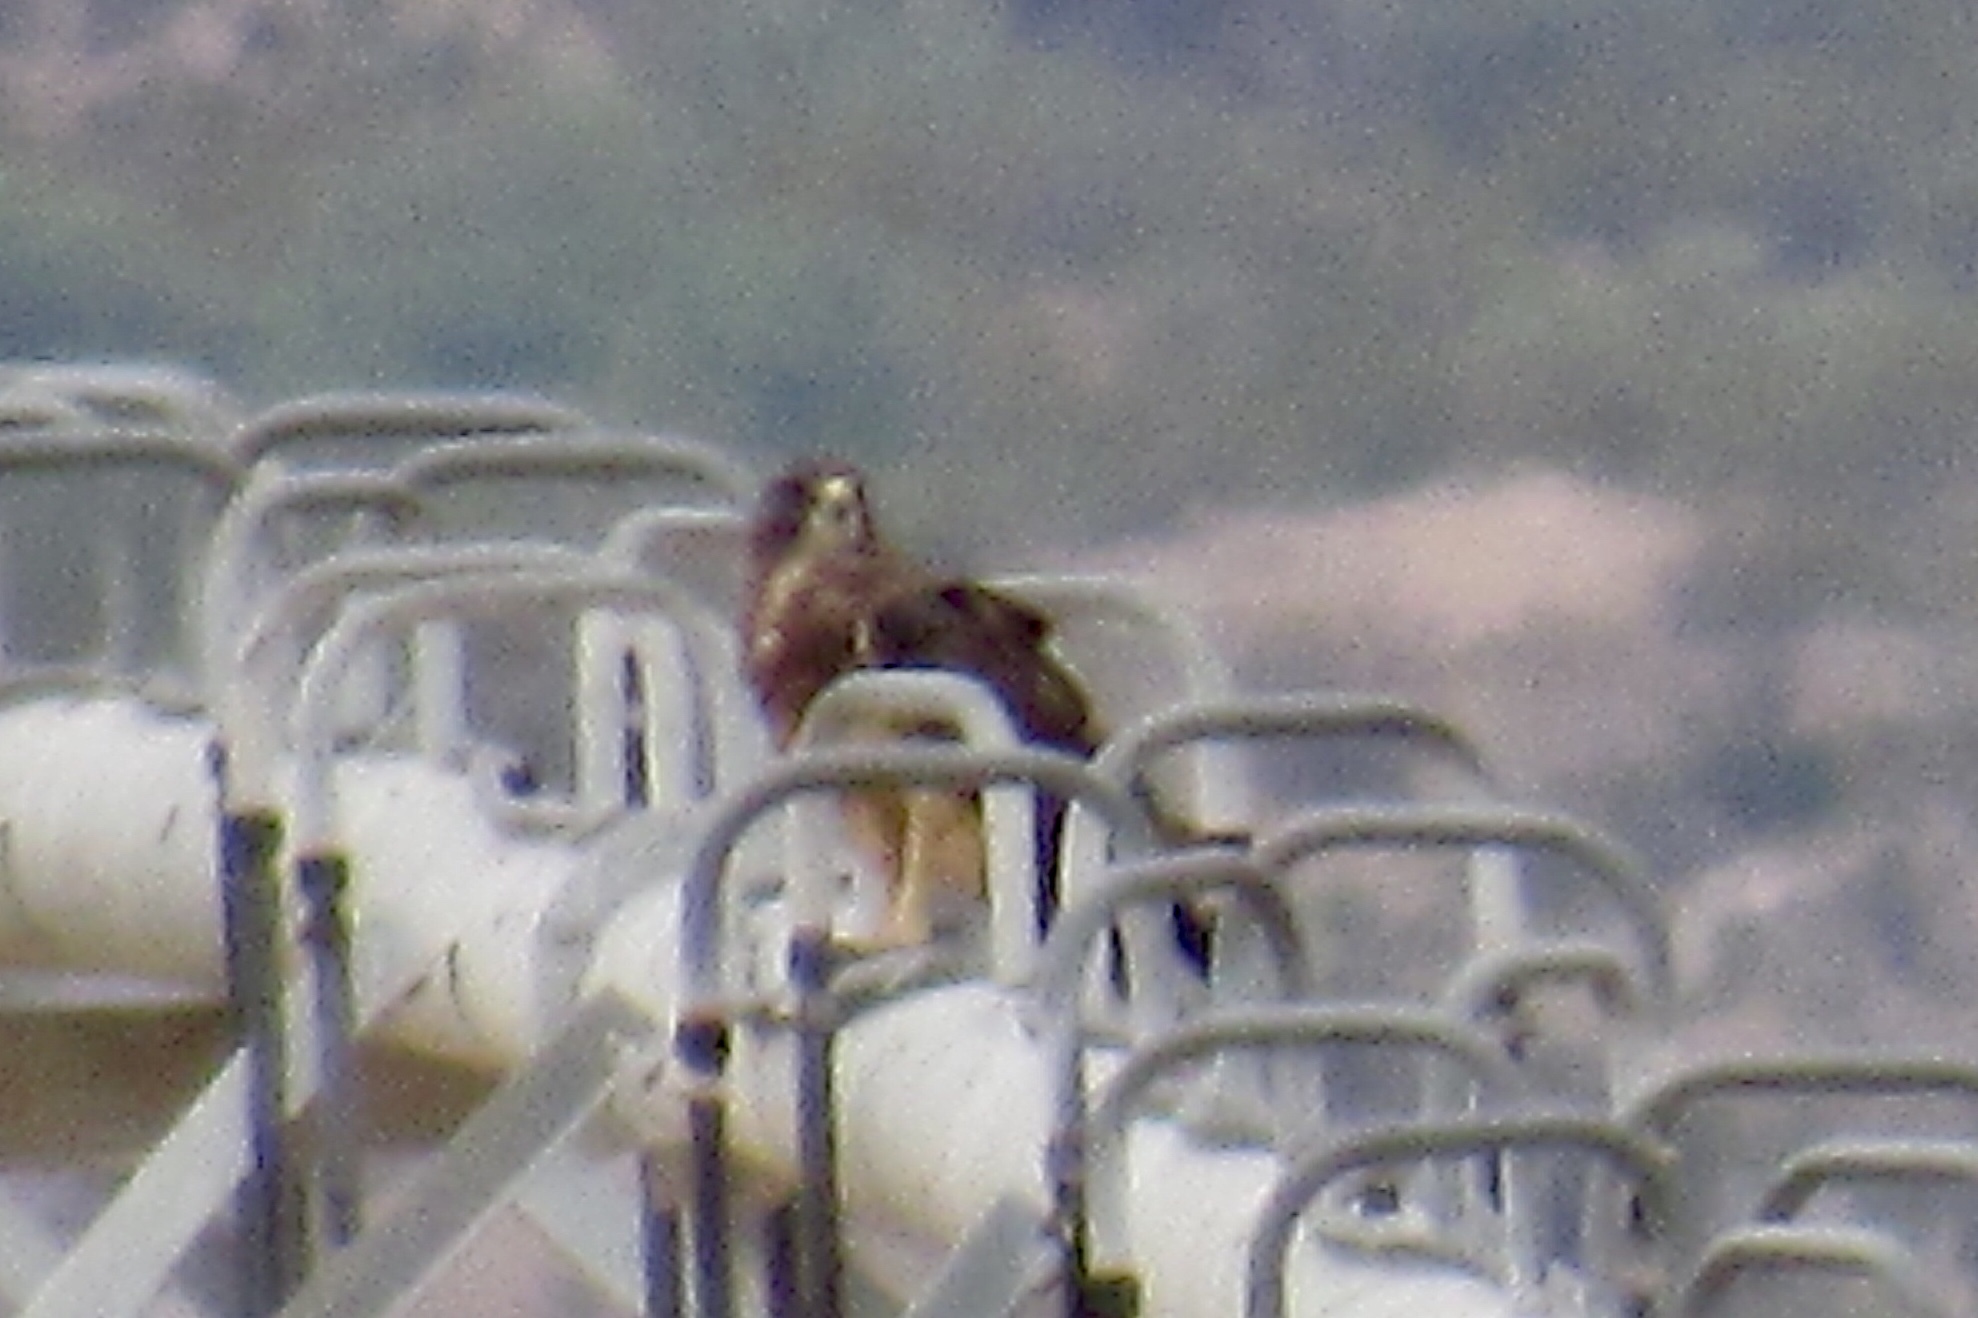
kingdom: Animalia
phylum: Chordata
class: Aves
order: Accipitriformes
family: Accipitridae
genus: Buteo
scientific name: Buteo swainsoni
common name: Swainson's hawk
